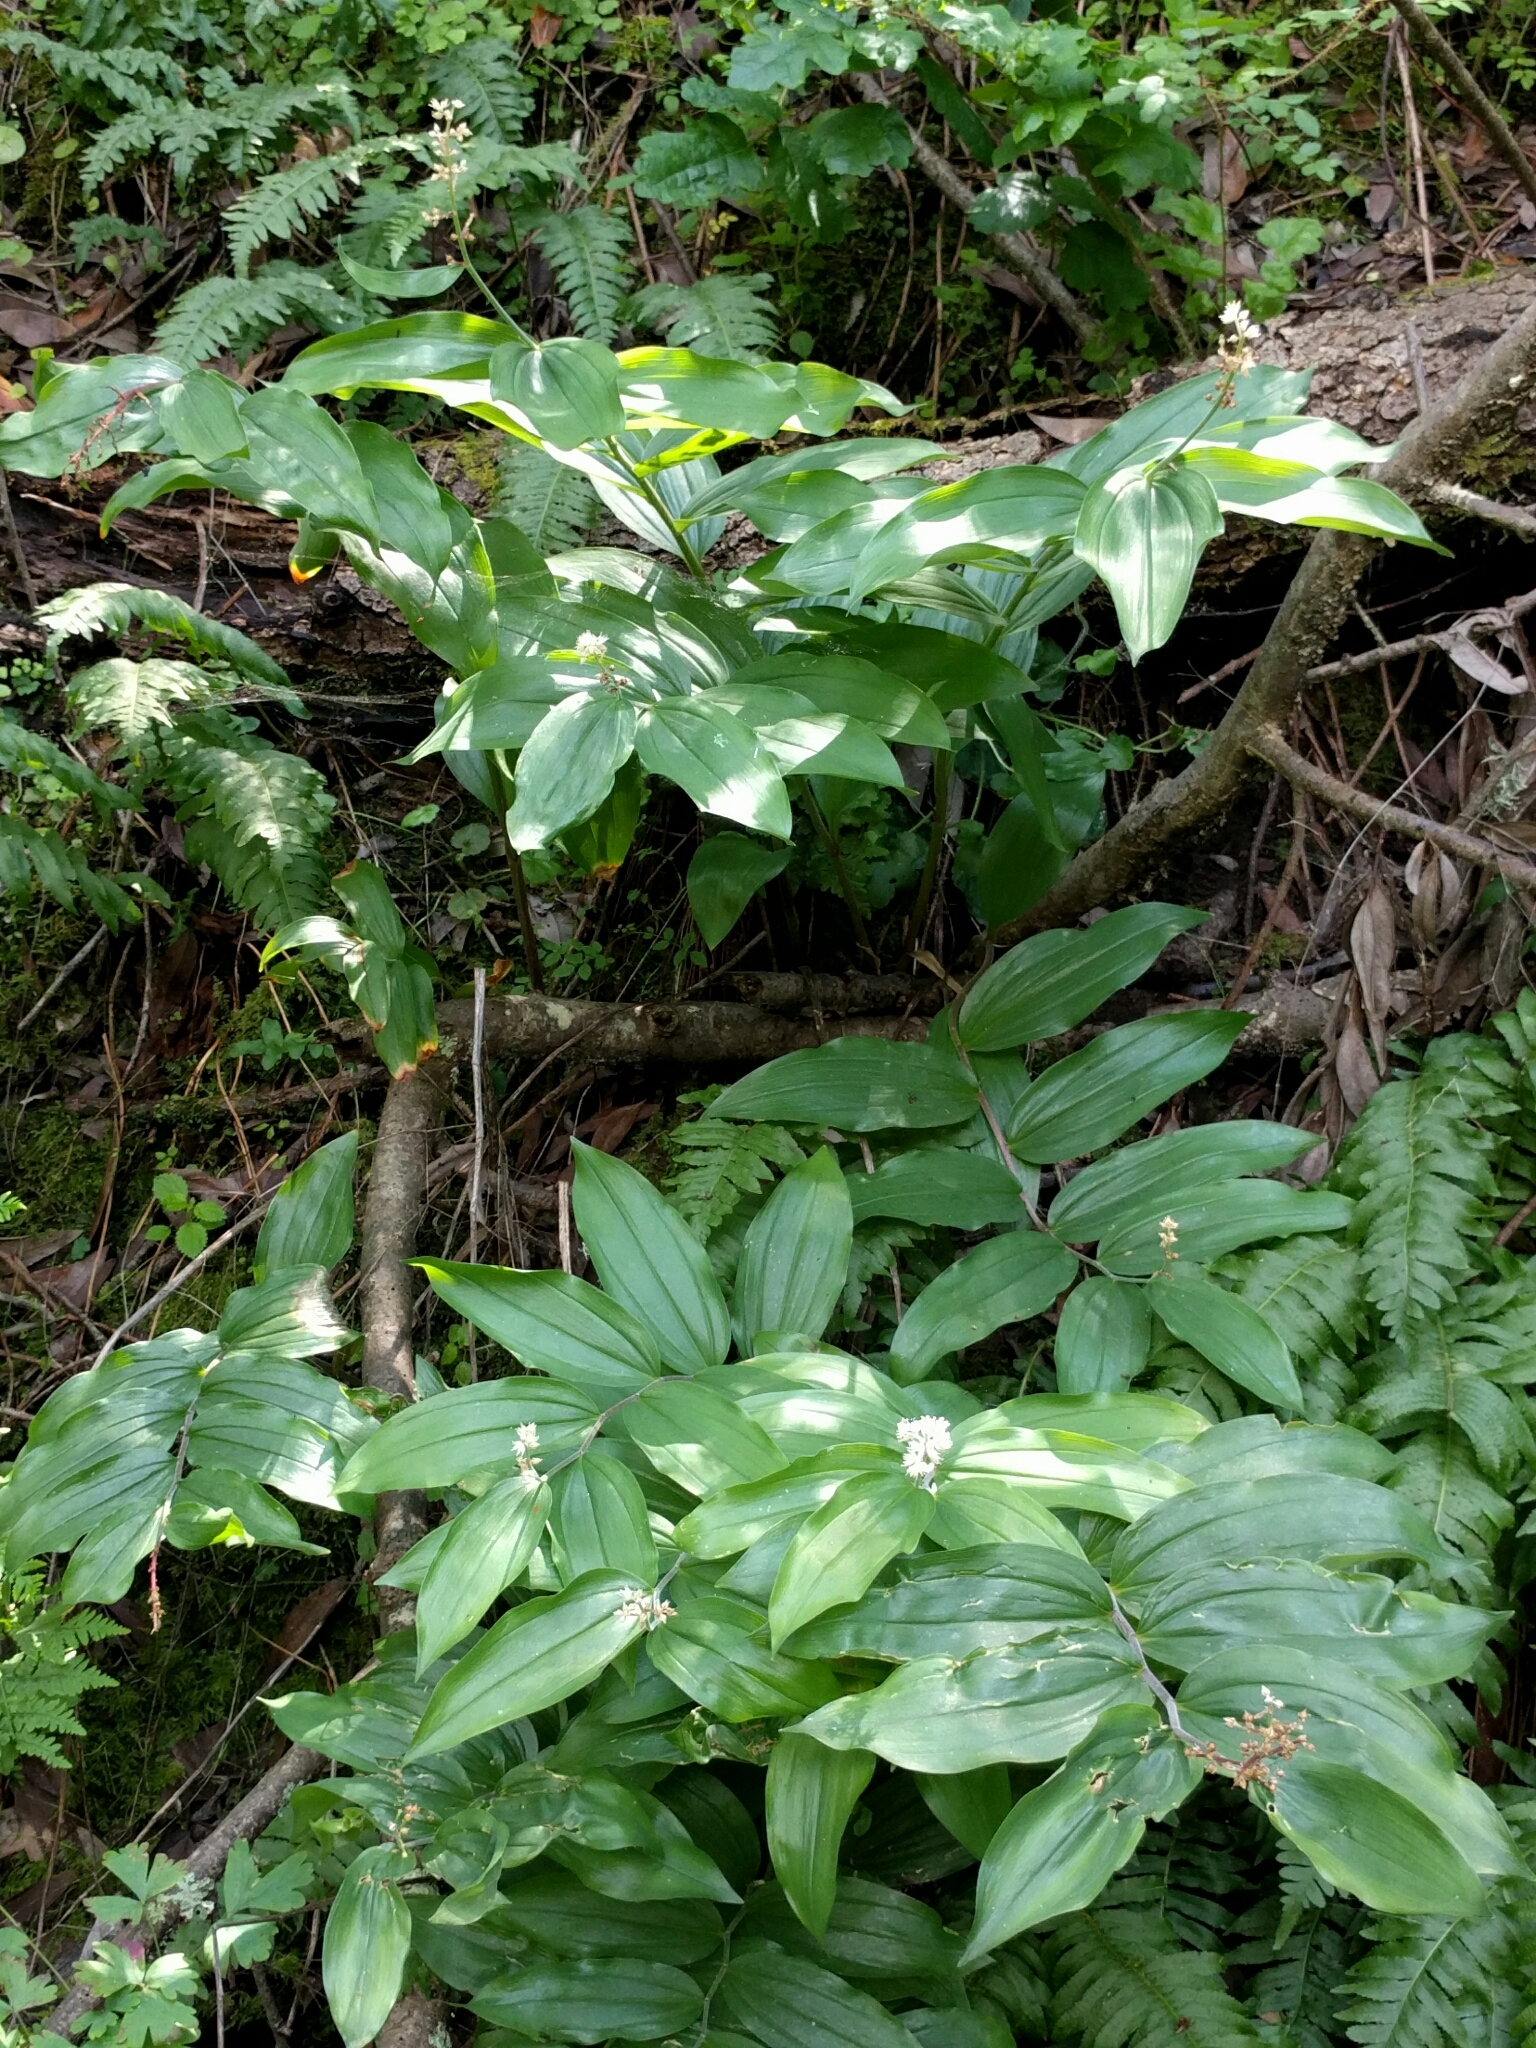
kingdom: Plantae
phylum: Tracheophyta
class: Liliopsida
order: Asparagales
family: Asparagaceae
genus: Maianthemum
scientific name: Maianthemum racemosum
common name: False spikenard
